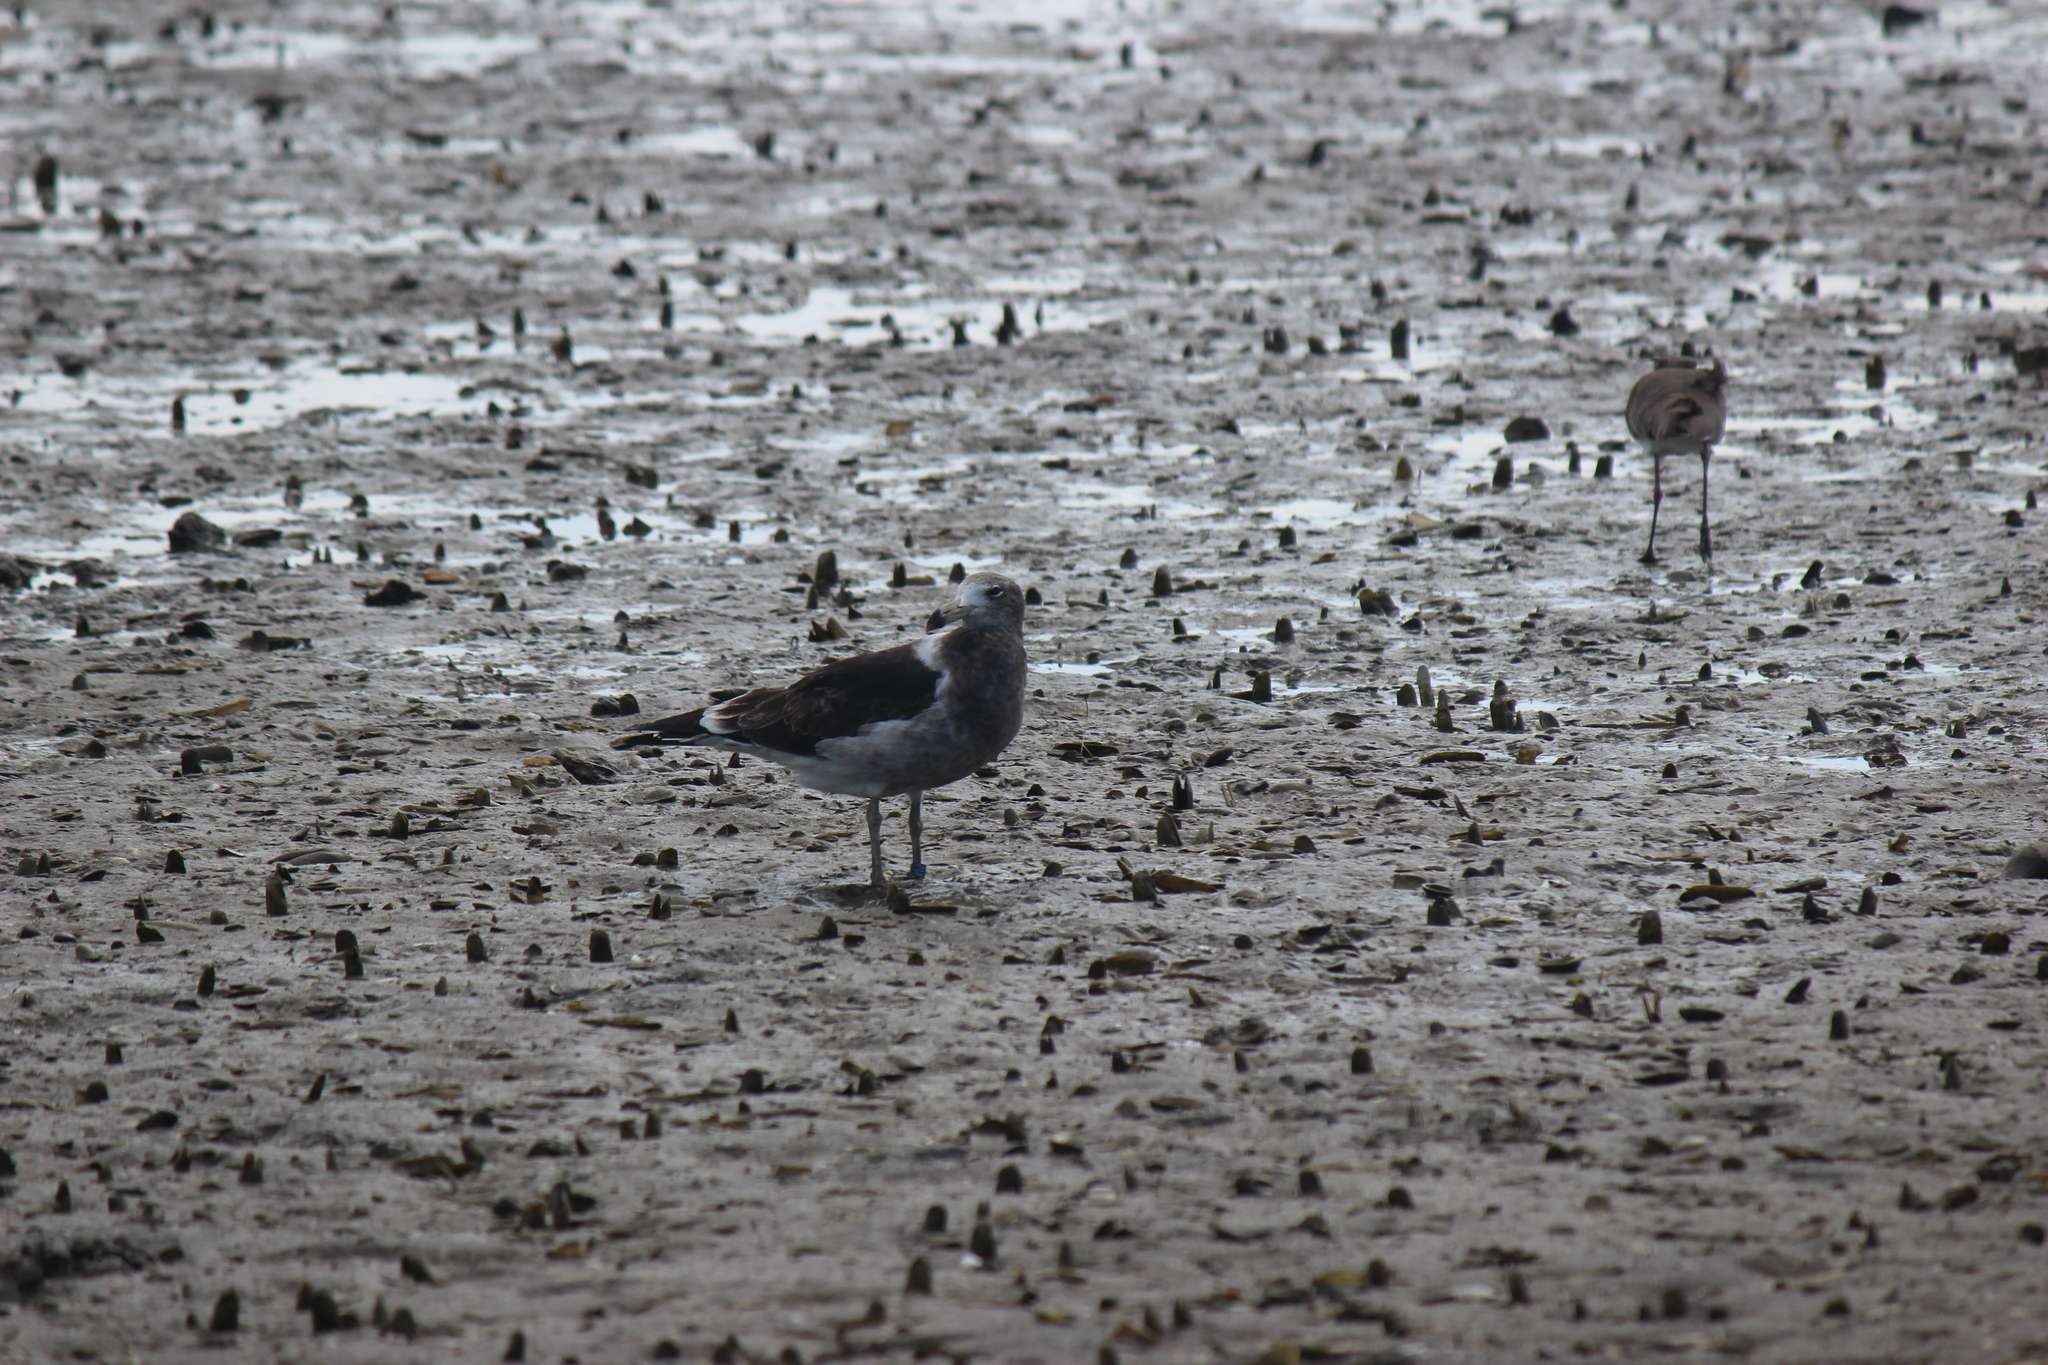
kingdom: Animalia
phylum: Chordata
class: Aves
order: Charadriiformes
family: Laridae
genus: Larus
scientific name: Larus atlanticus
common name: Olrog's gull
